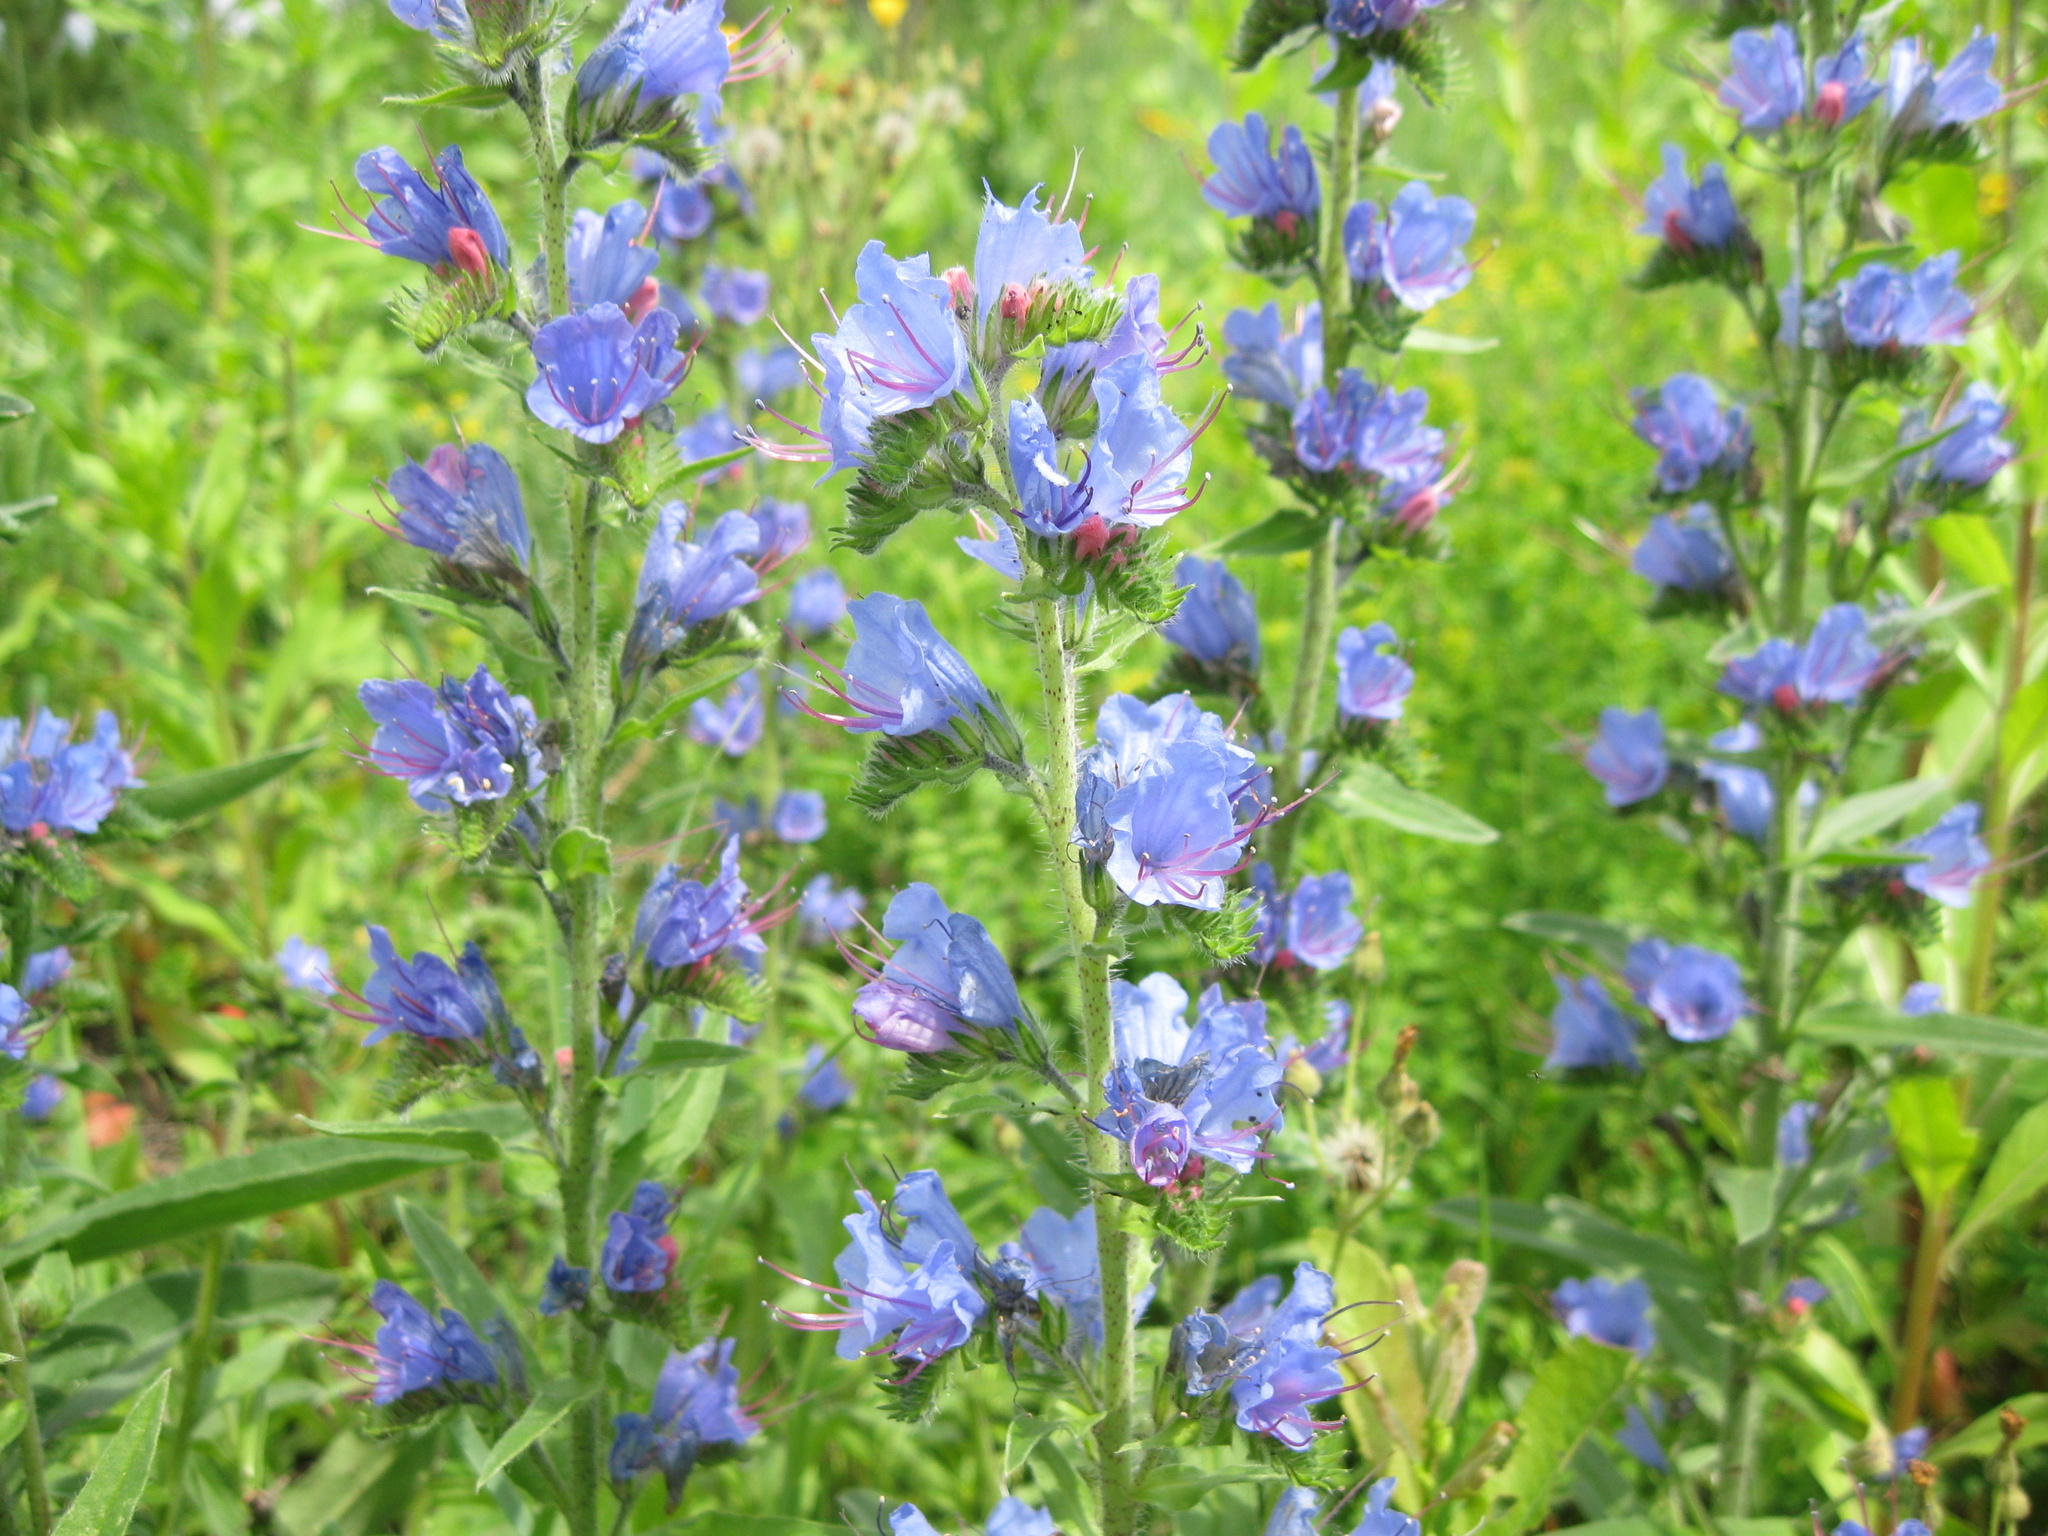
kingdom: Plantae
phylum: Tracheophyta
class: Magnoliopsida
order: Boraginales
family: Boraginaceae
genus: Echium
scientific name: Echium vulgare
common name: Common viper's bugloss
